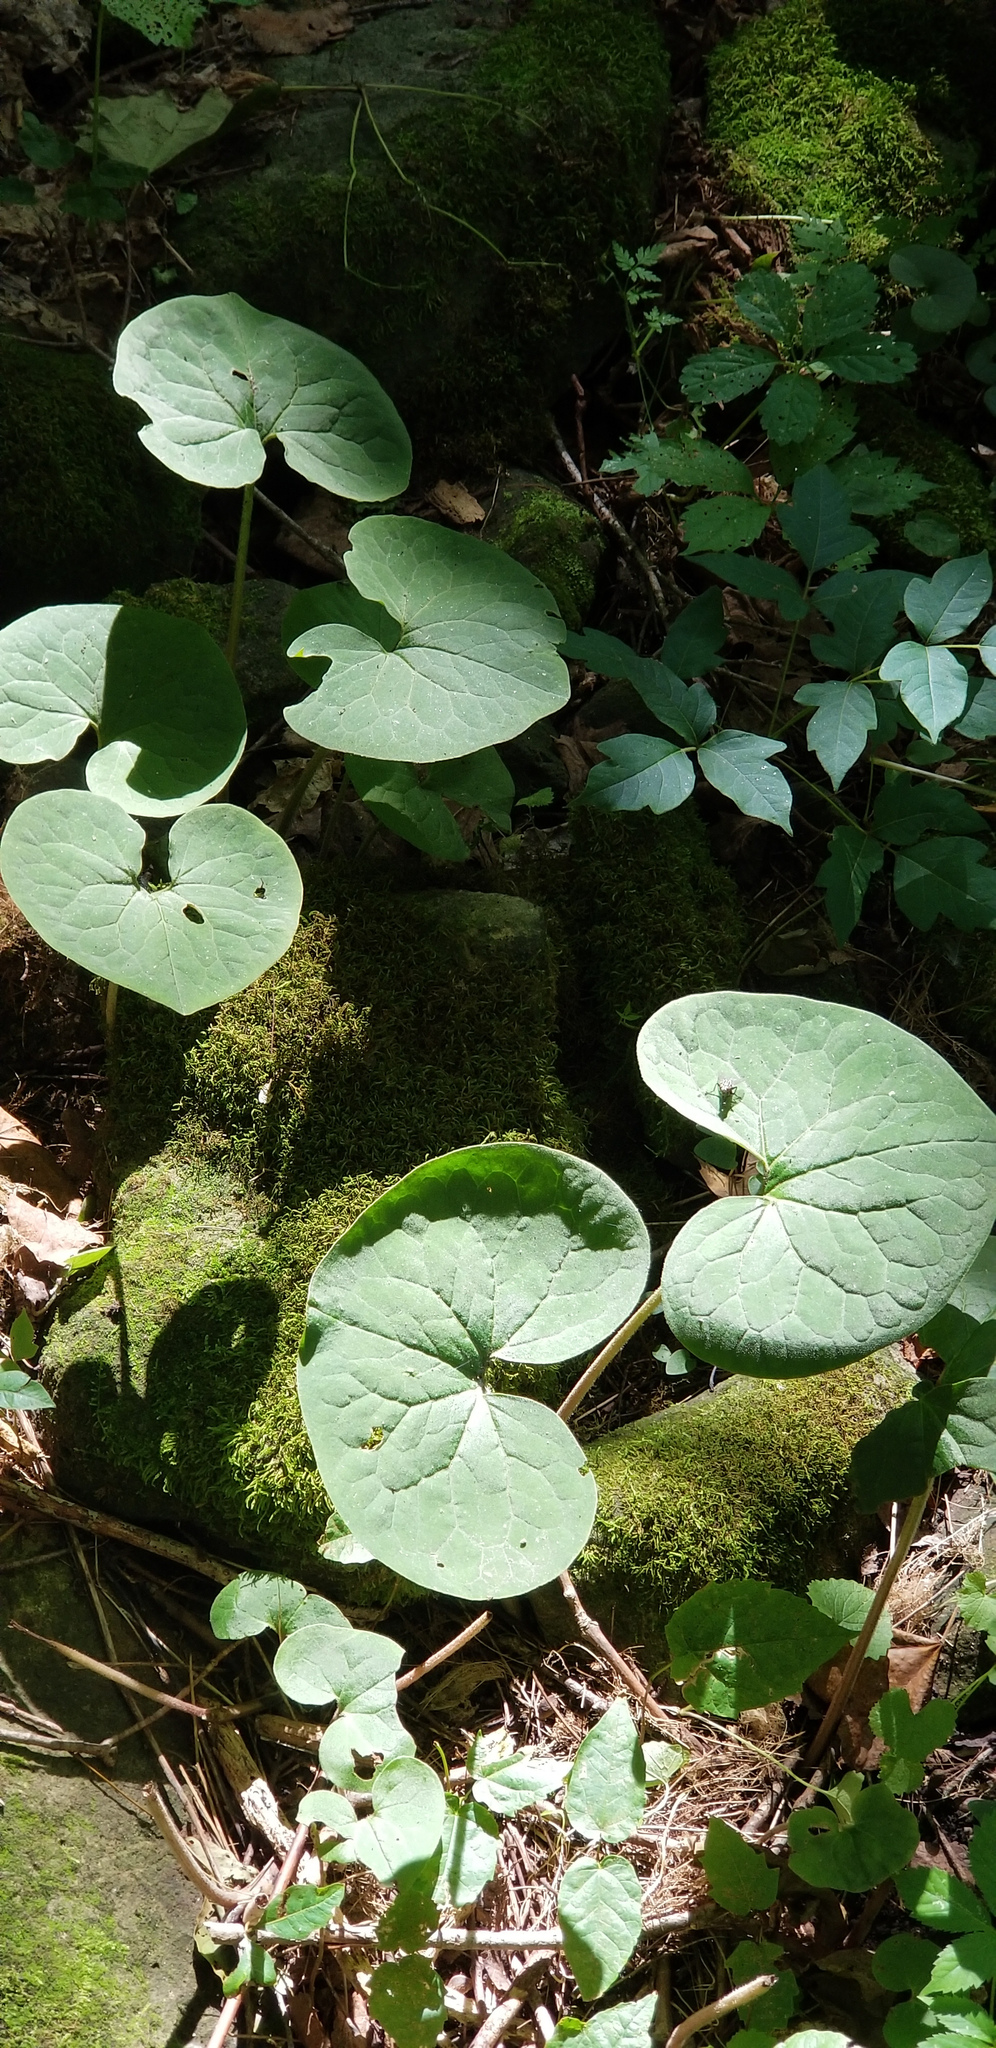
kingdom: Plantae
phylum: Tracheophyta
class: Magnoliopsida
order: Piperales
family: Aristolochiaceae
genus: Asarum
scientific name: Asarum canadense
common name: Wild ginger
